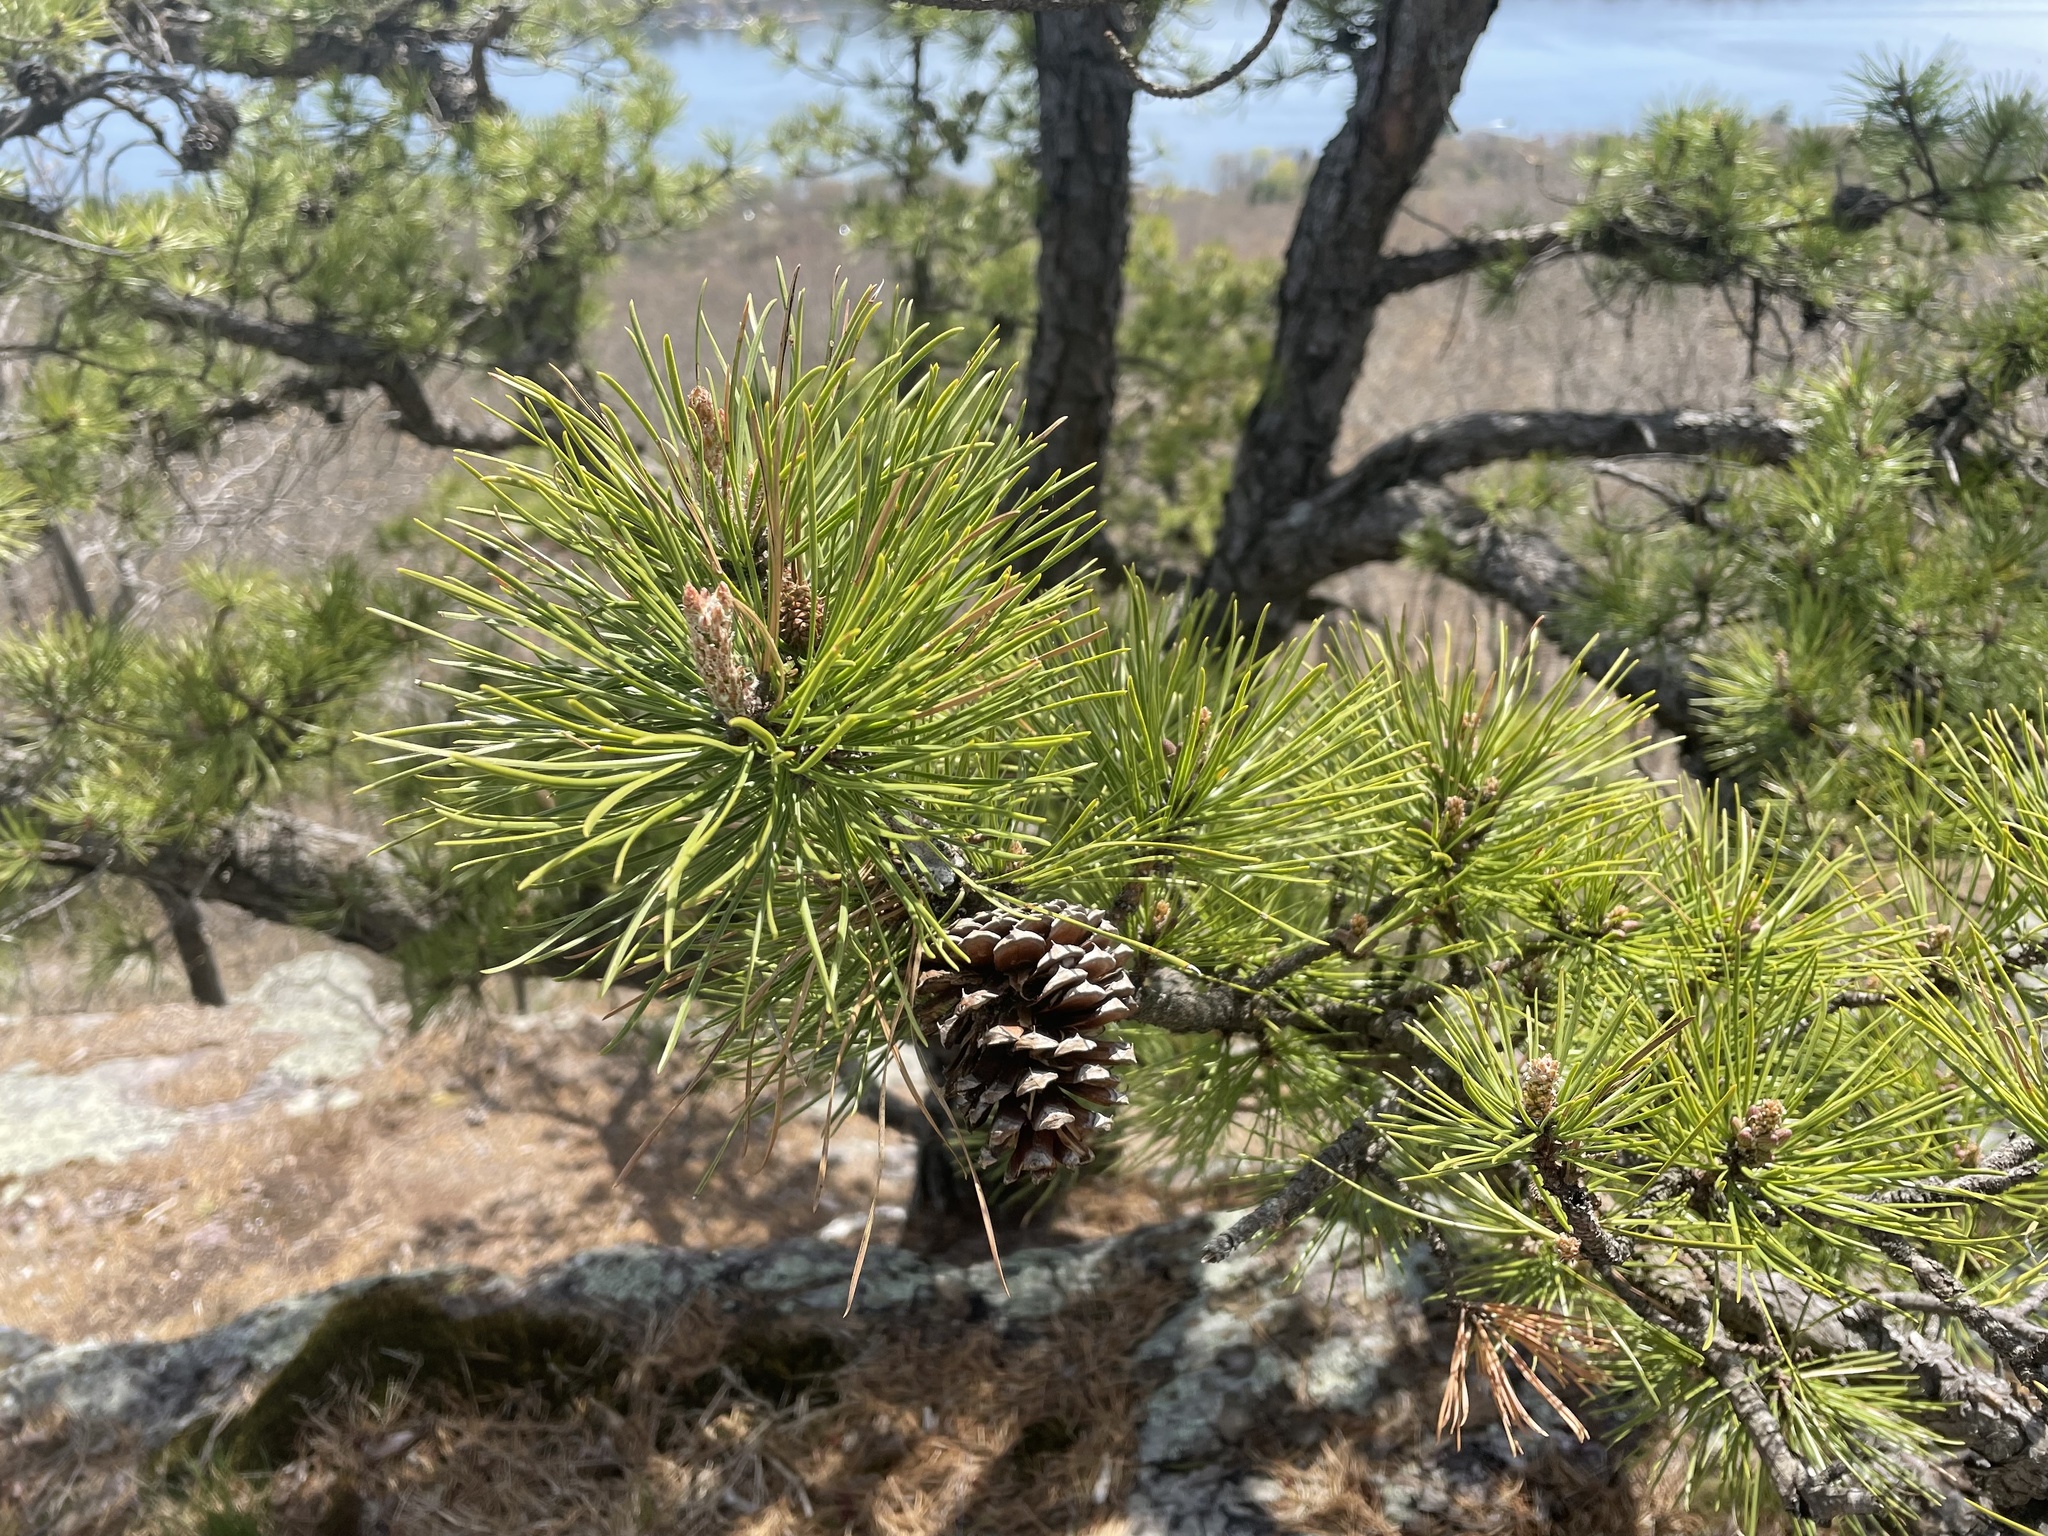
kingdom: Plantae
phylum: Tracheophyta
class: Pinopsida
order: Pinales
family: Pinaceae
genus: Pinus
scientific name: Pinus rigida
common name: Pitch pine
